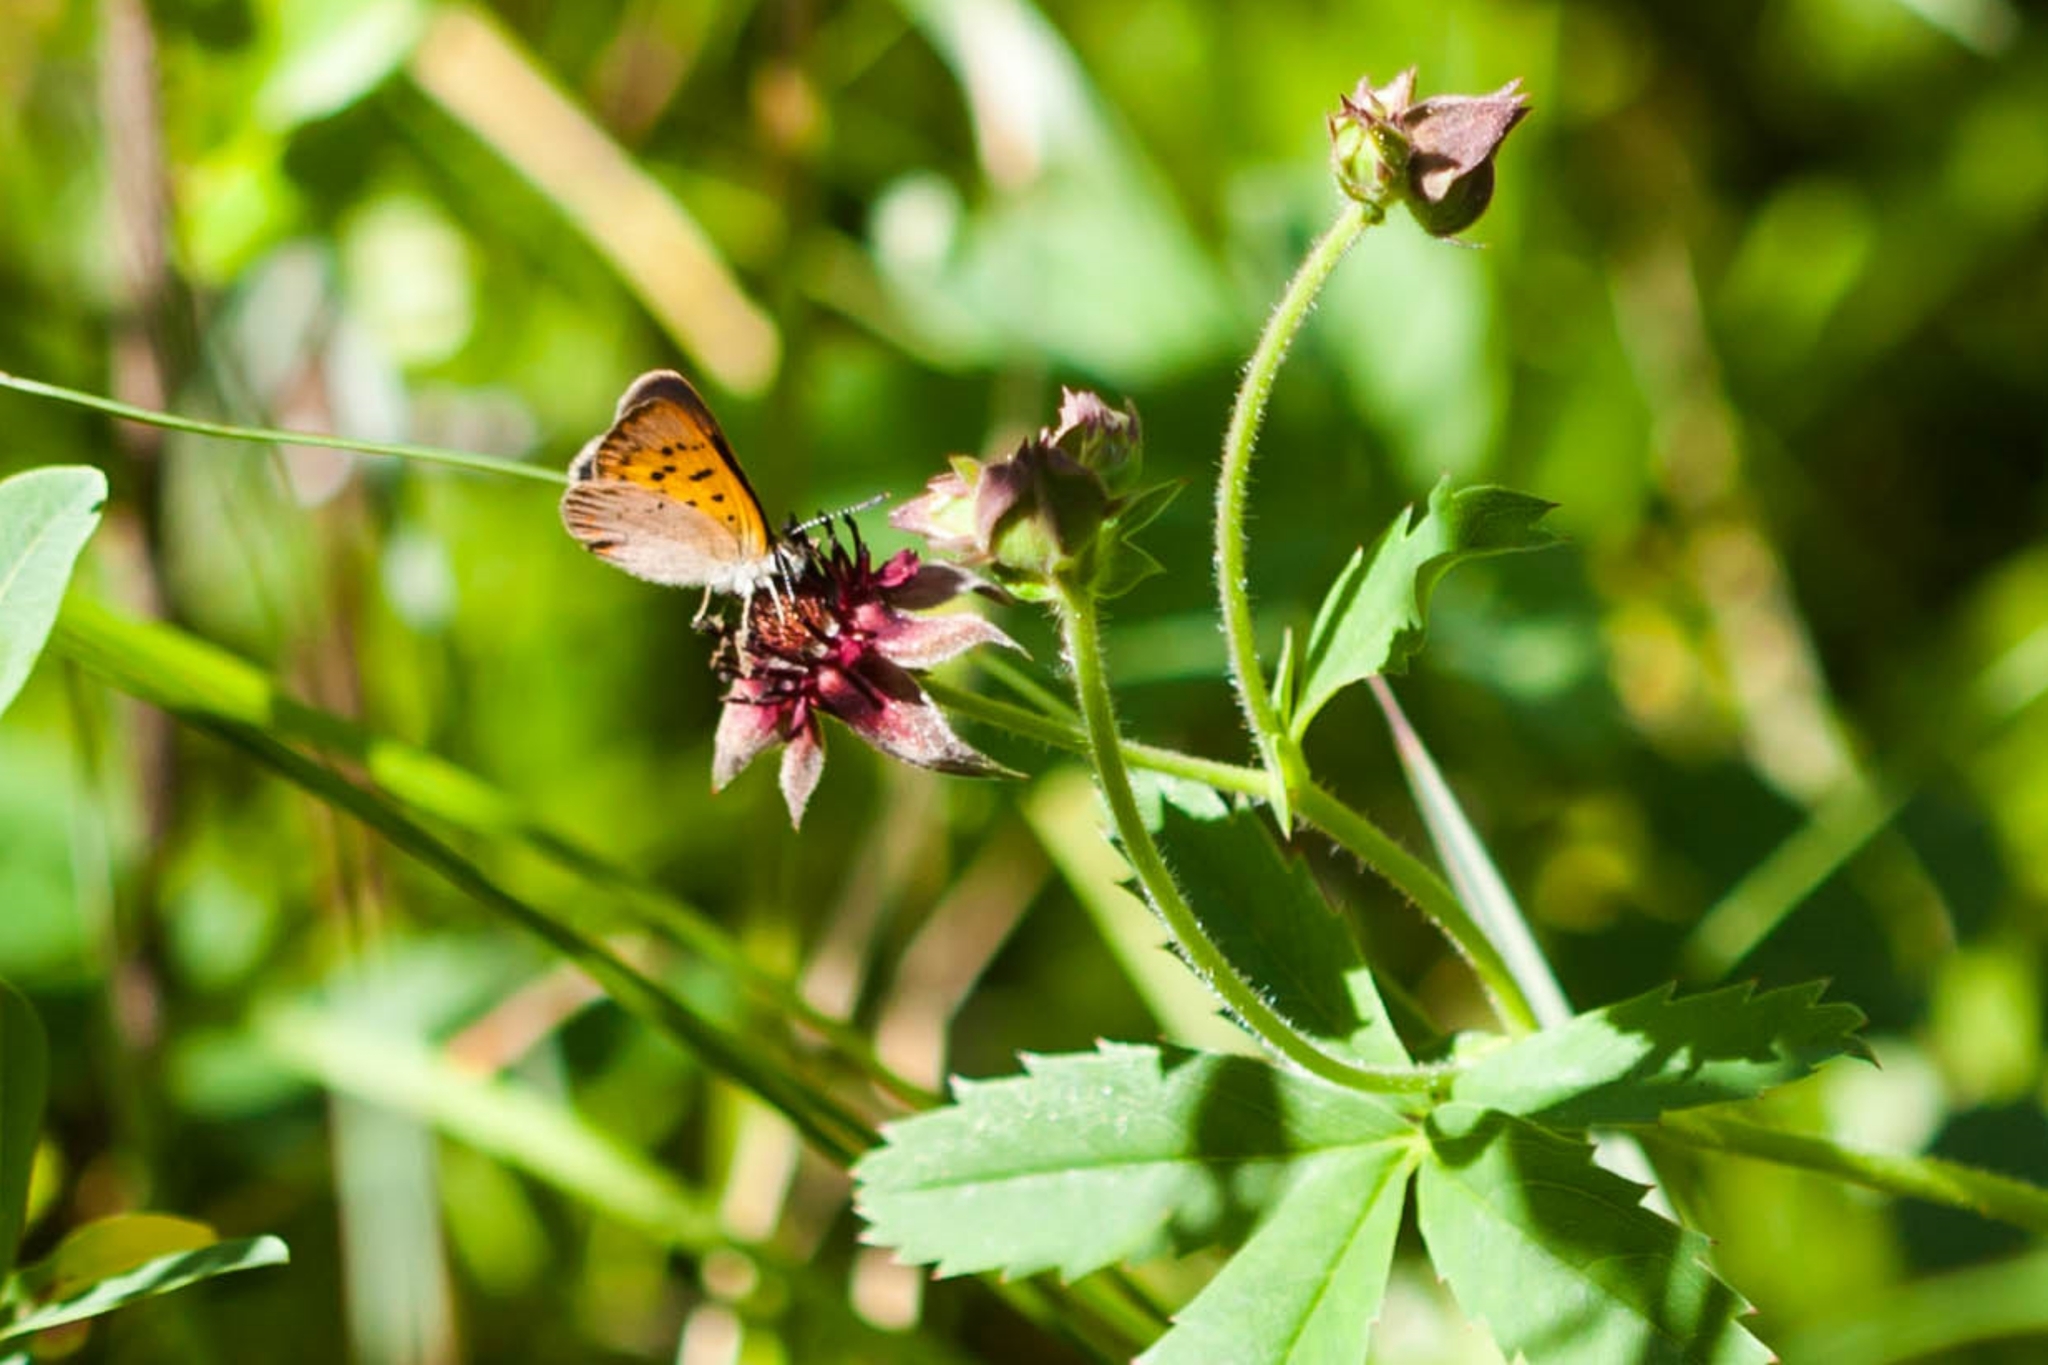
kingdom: Animalia
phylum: Arthropoda
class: Insecta
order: Lepidoptera
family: Lycaenidae
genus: Tharsalea
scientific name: Tharsalea dorcas
